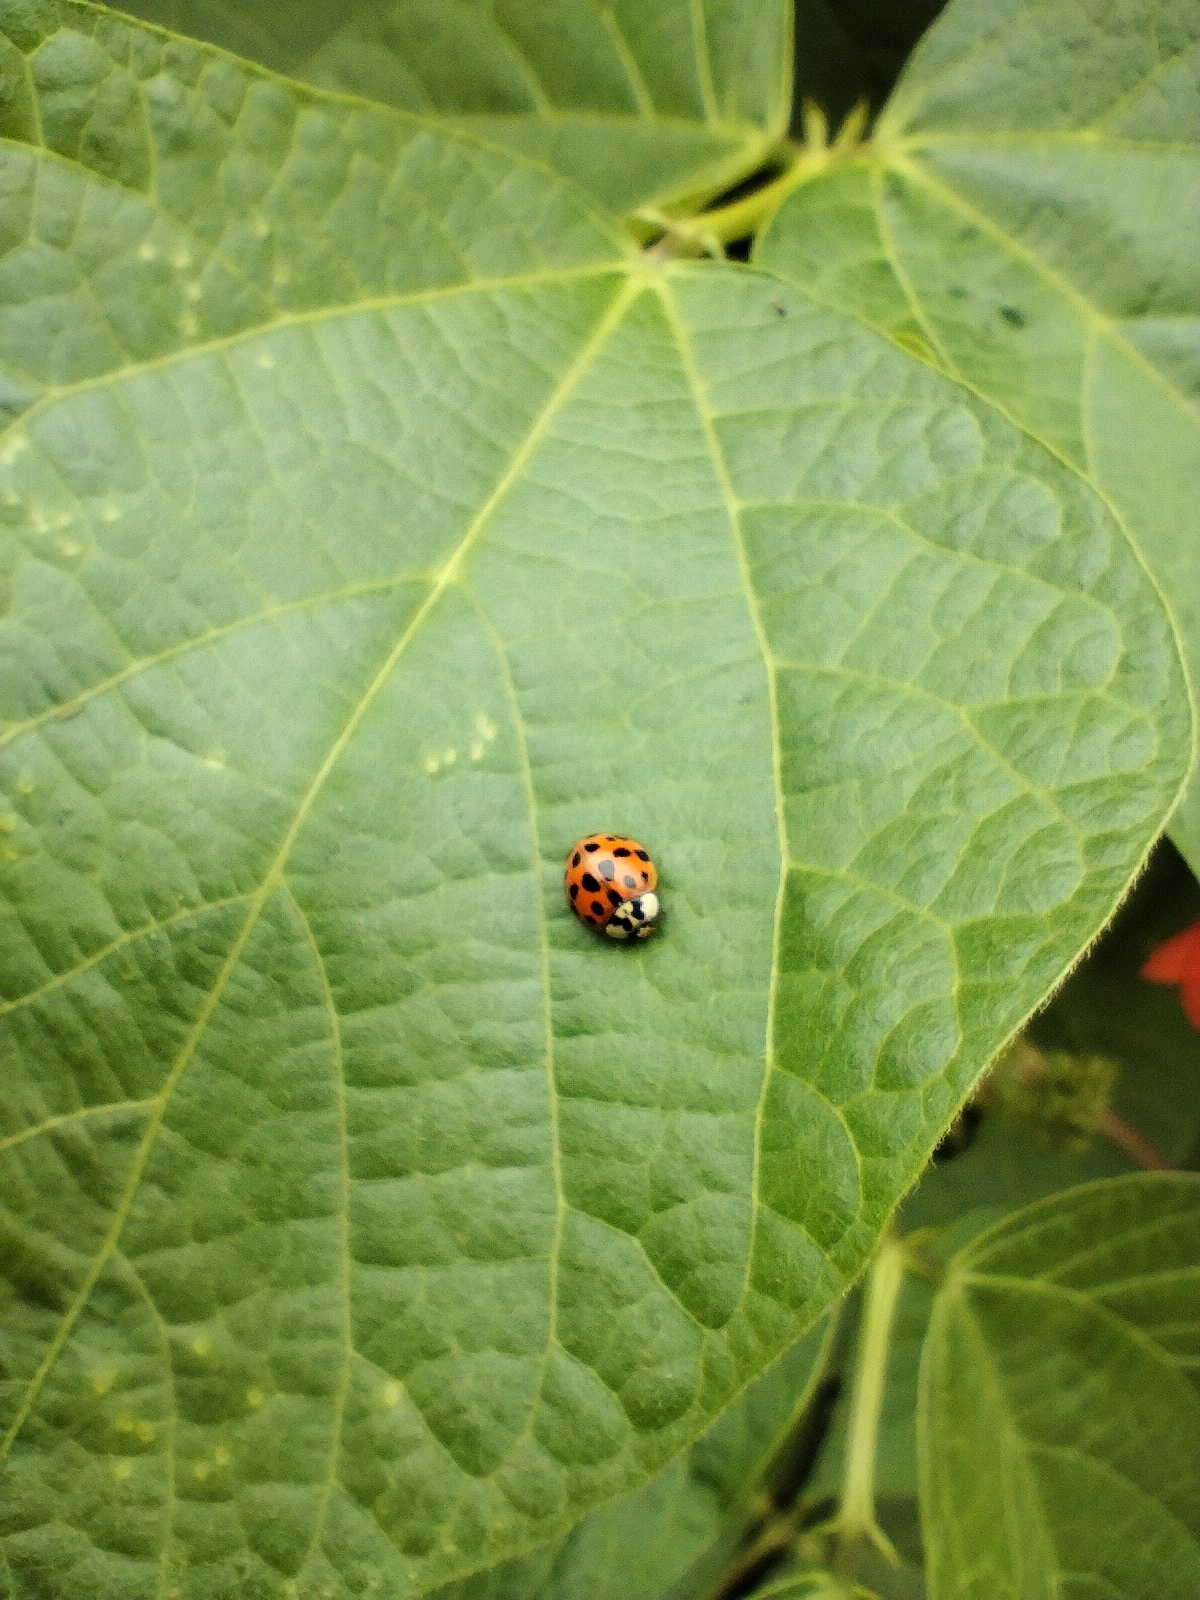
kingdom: Animalia
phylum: Arthropoda
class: Insecta
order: Coleoptera
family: Coccinellidae
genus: Harmonia
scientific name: Harmonia axyridis
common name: Harlequin ladybird
